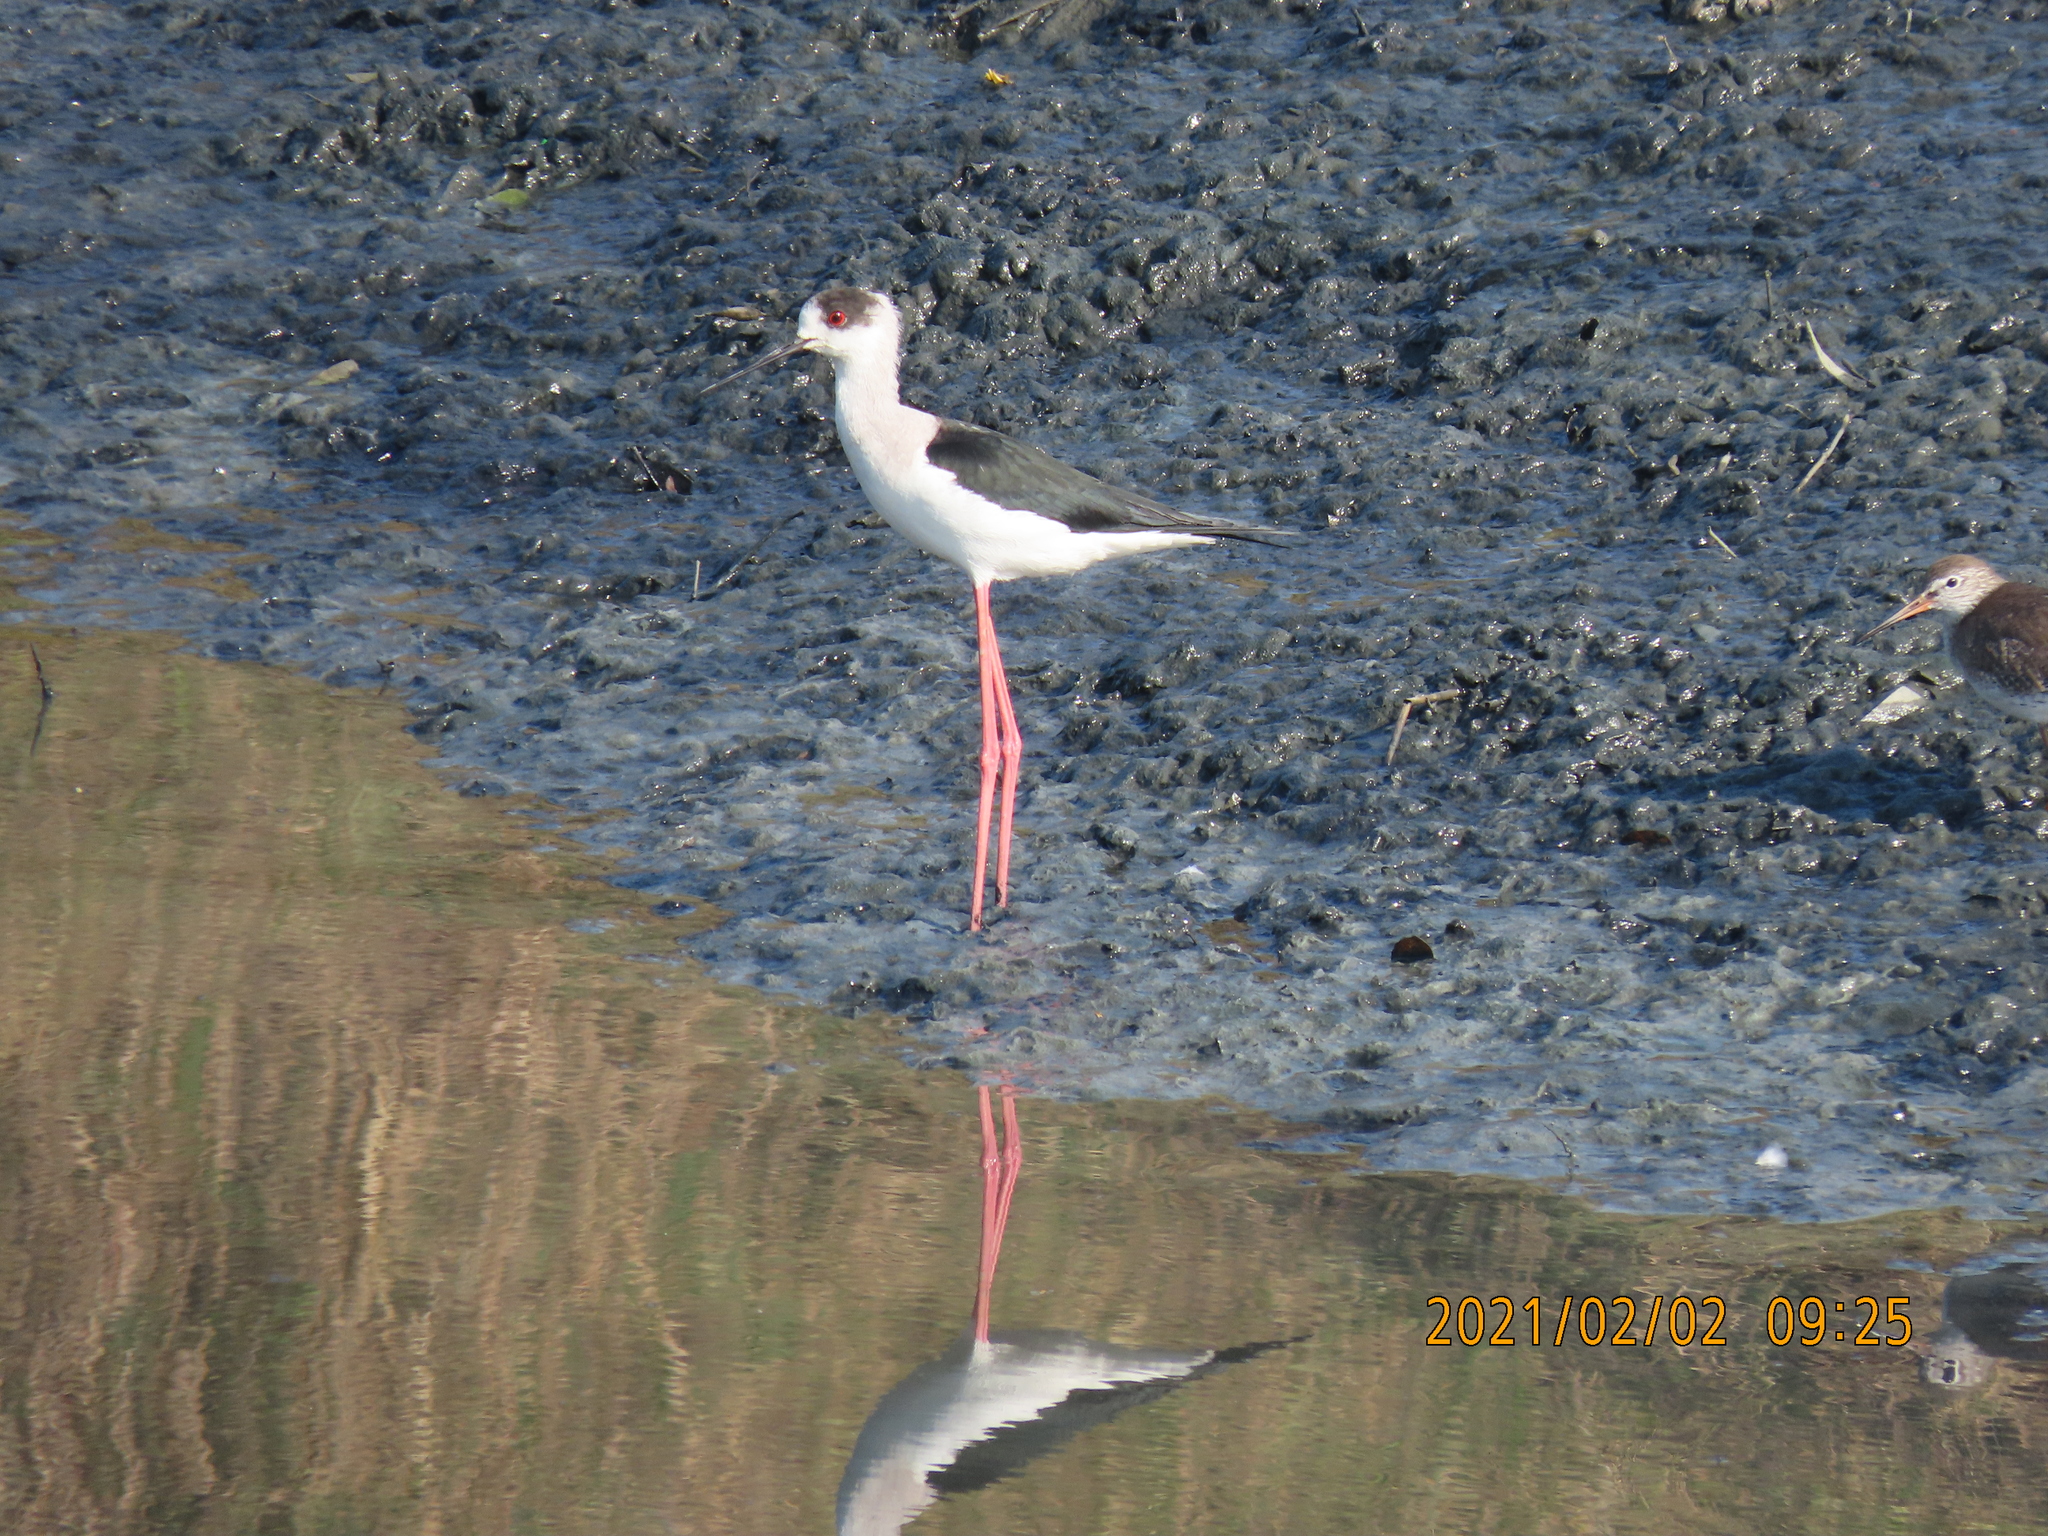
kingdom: Animalia
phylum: Chordata
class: Aves
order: Charadriiformes
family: Recurvirostridae
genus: Himantopus
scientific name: Himantopus himantopus
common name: Black-winged stilt
